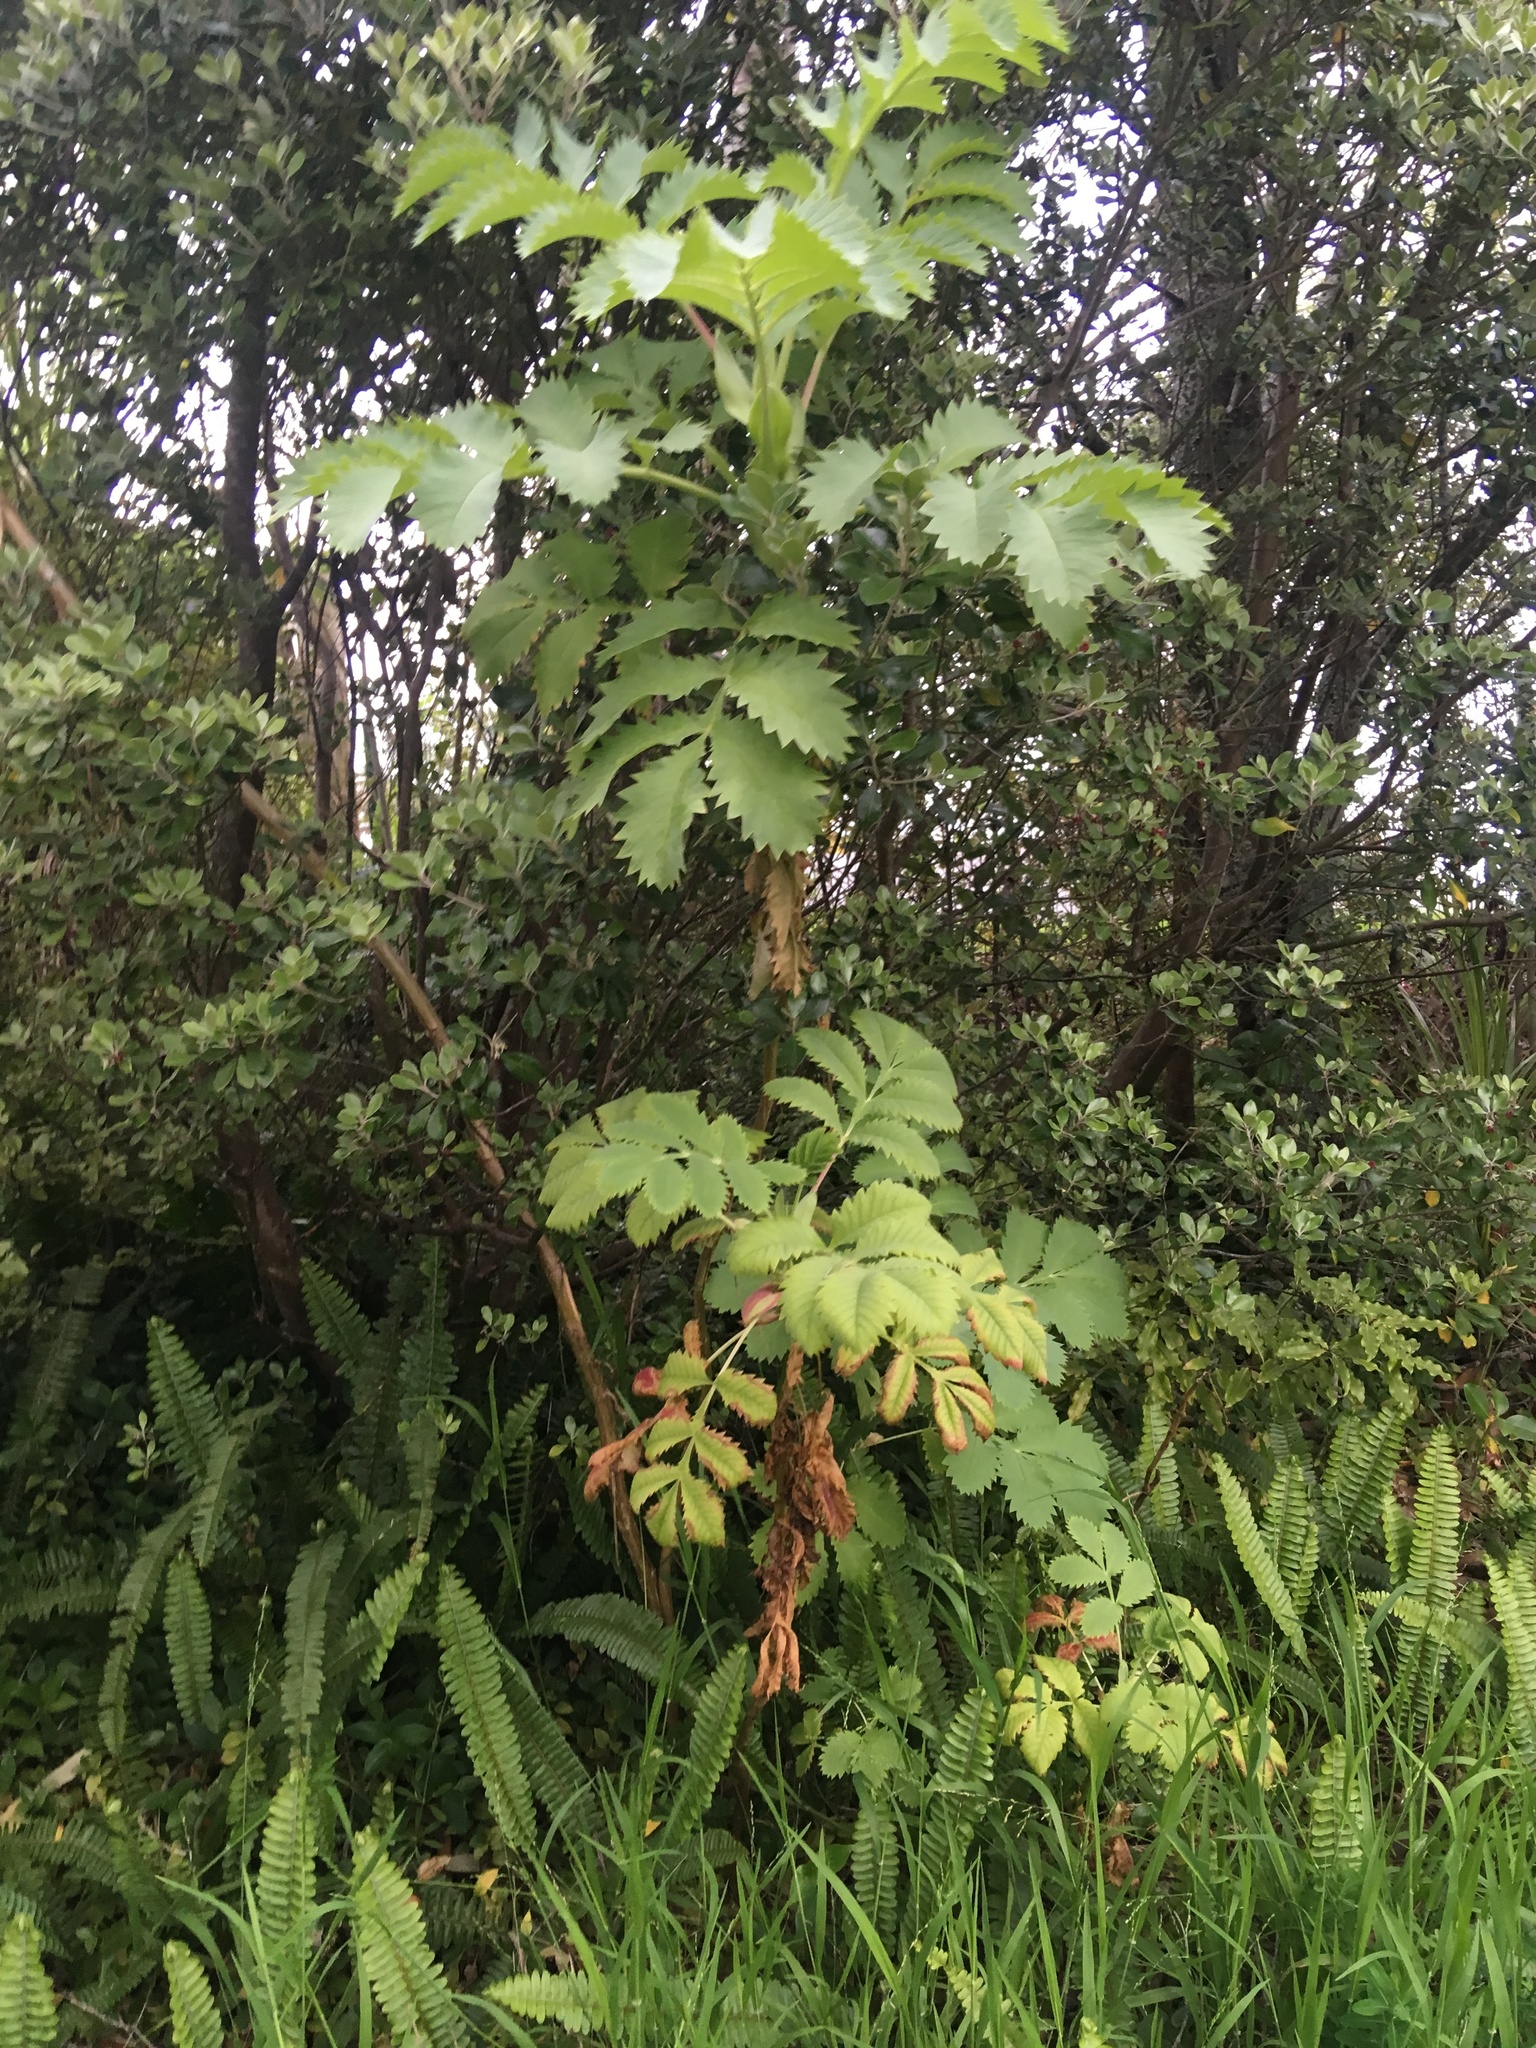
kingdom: Plantae
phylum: Tracheophyta
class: Magnoliopsida
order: Geraniales
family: Melianthaceae
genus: Melianthus
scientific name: Melianthus major
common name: Honey-flower
